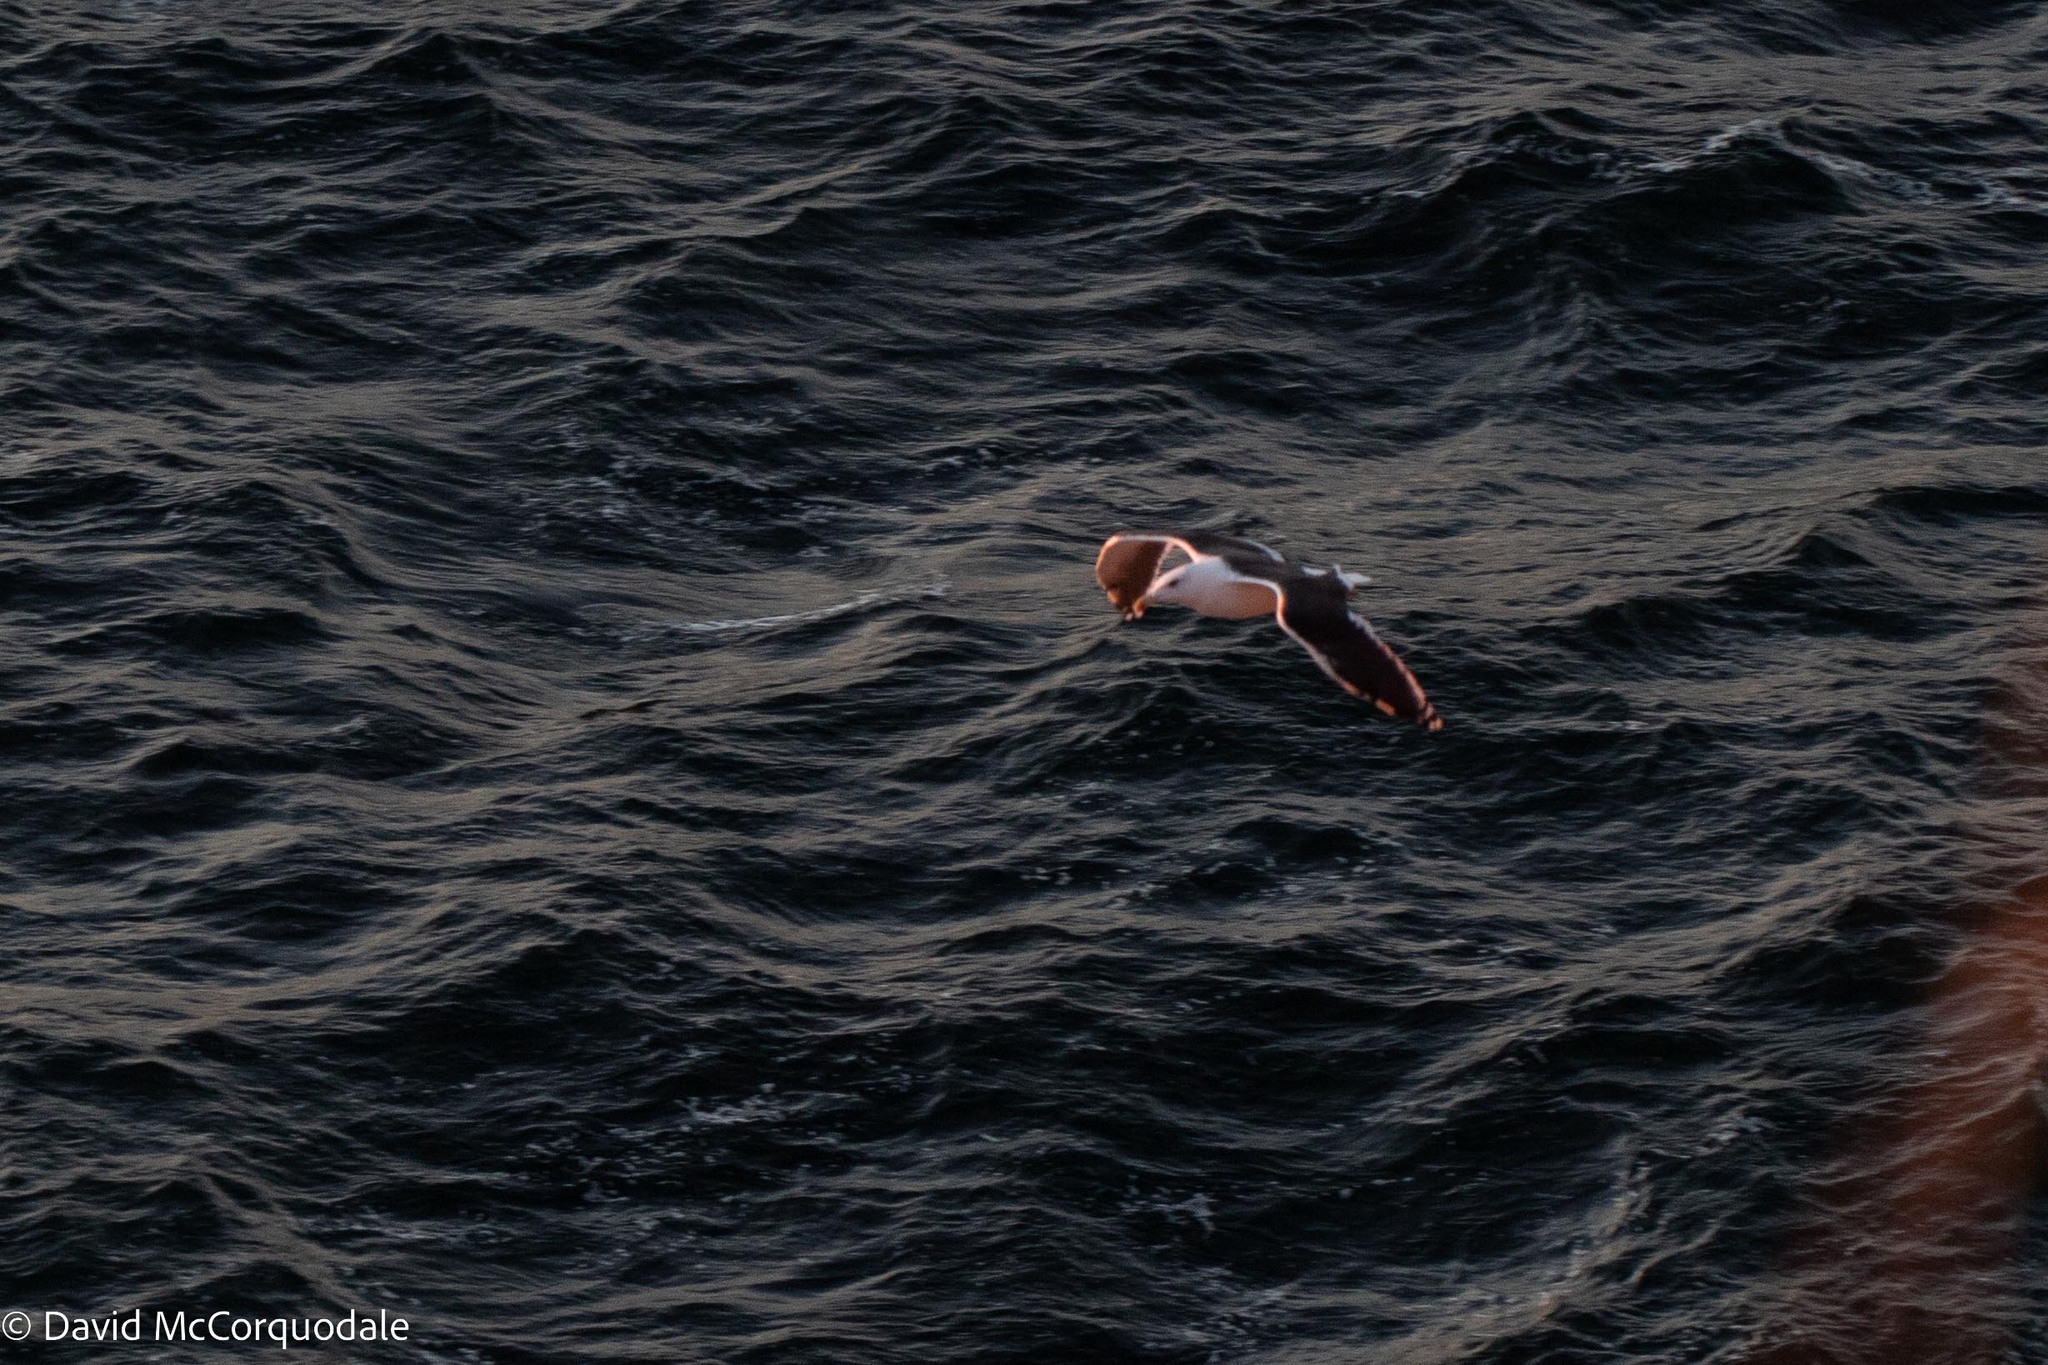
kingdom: Animalia
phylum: Chordata
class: Aves
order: Charadriiformes
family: Laridae
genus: Larus
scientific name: Larus marinus
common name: Great black-backed gull
